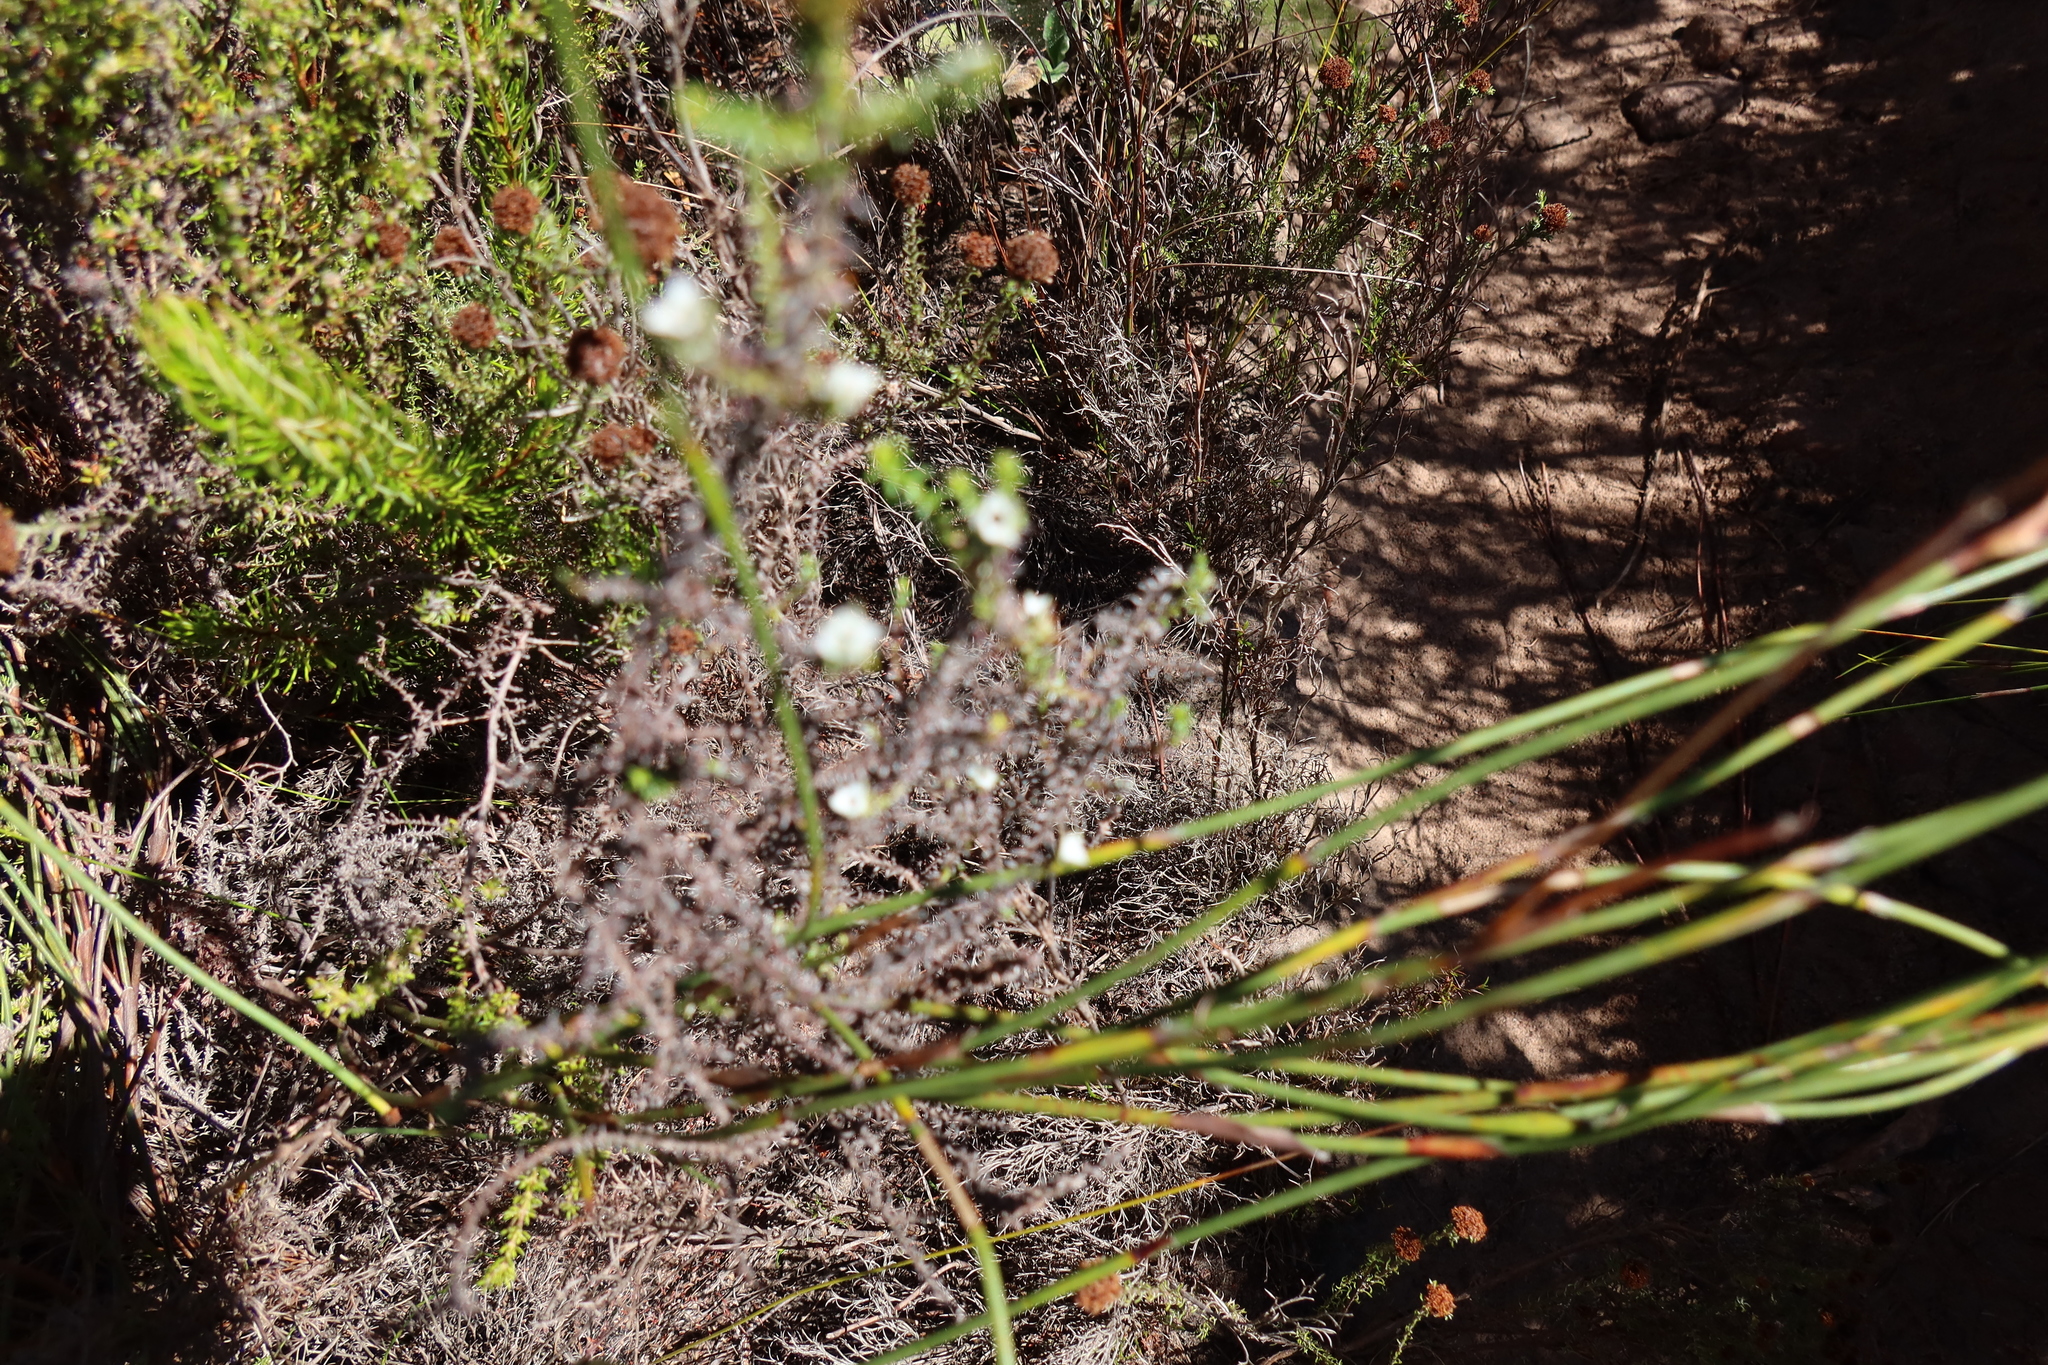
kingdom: Plantae
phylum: Tracheophyta
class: Magnoliopsida
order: Asterales
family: Asteraceae
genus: Seriphium
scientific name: Seriphium cinereum
